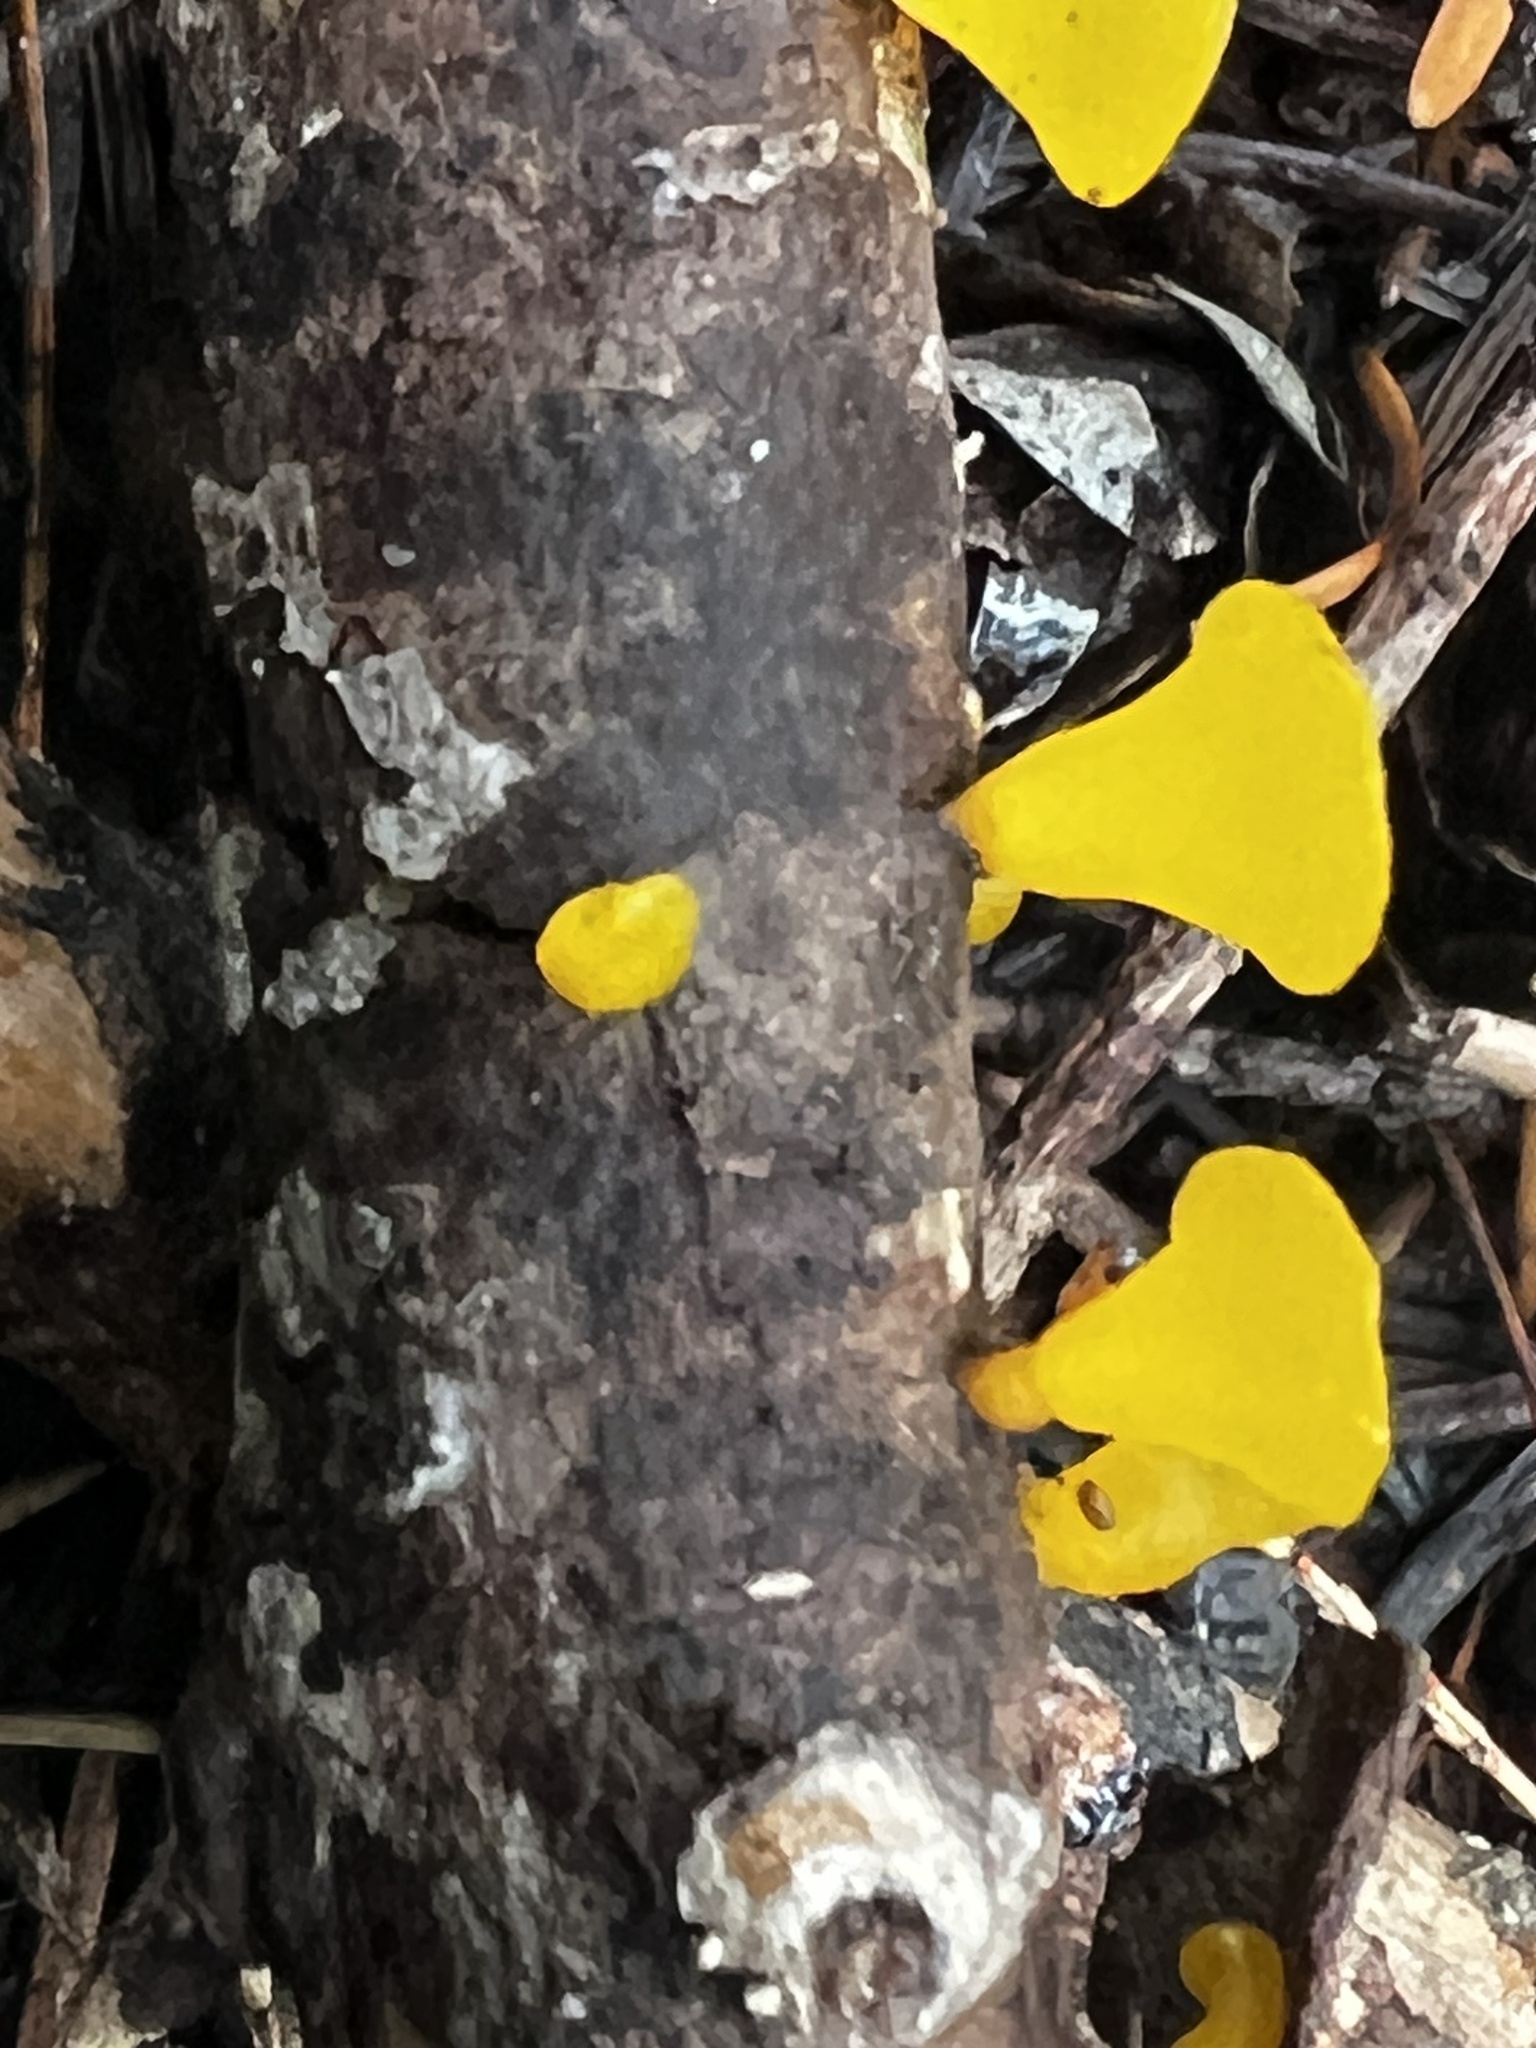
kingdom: Fungi
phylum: Basidiomycota
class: Dacrymycetes
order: Dacrymycetales
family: Dacrymycetaceae
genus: Guepiniopsis
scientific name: Guepiniopsis alpina
